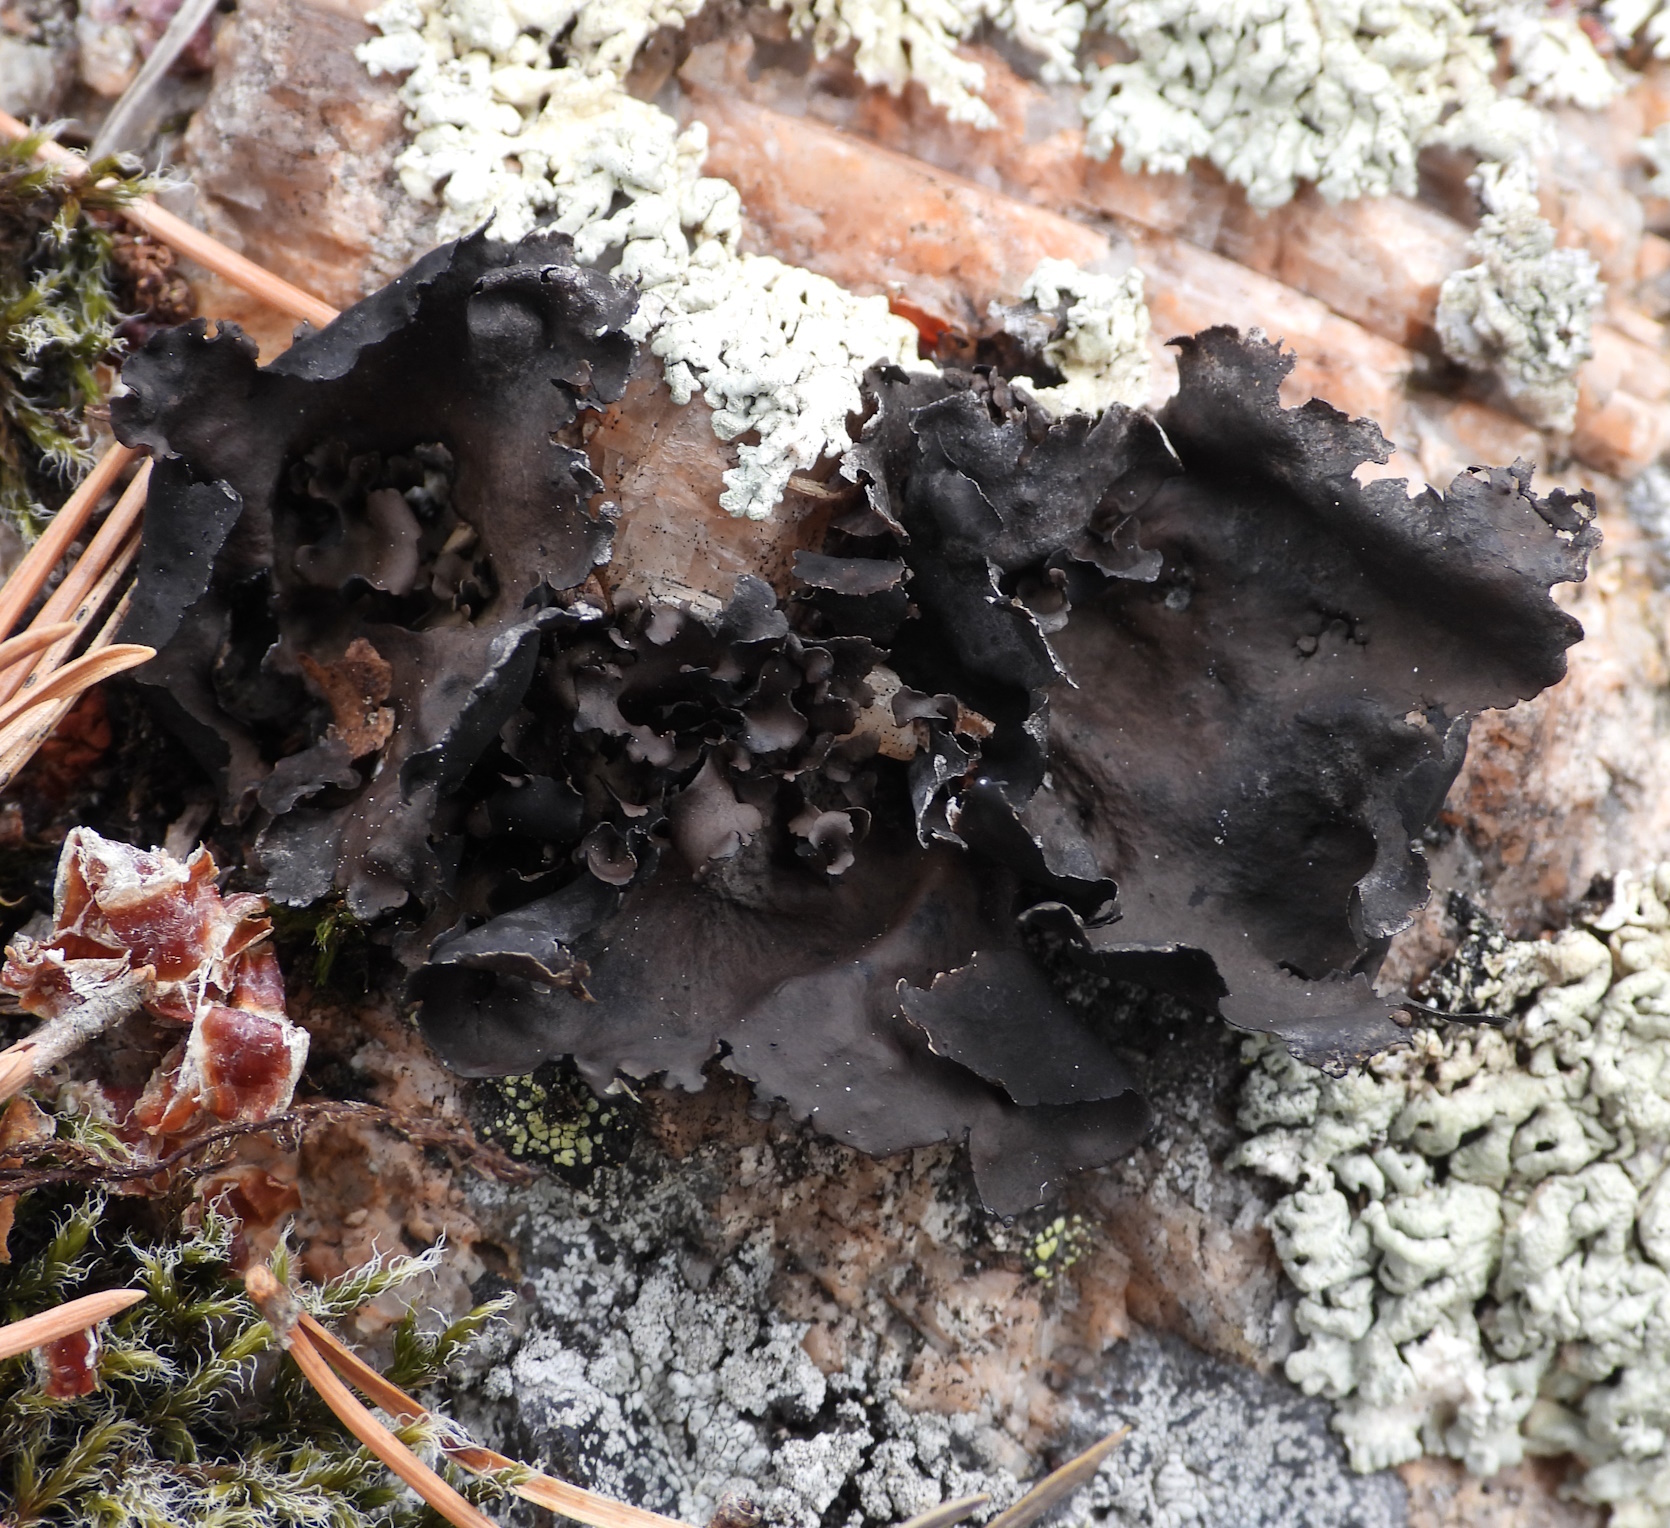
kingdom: Fungi
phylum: Ascomycota
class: Lecanoromycetes
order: Umbilicariales
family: Umbilicariaceae
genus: Umbilicaria
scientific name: Umbilicaria polyphylla
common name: Petalled rocktripe lichen
